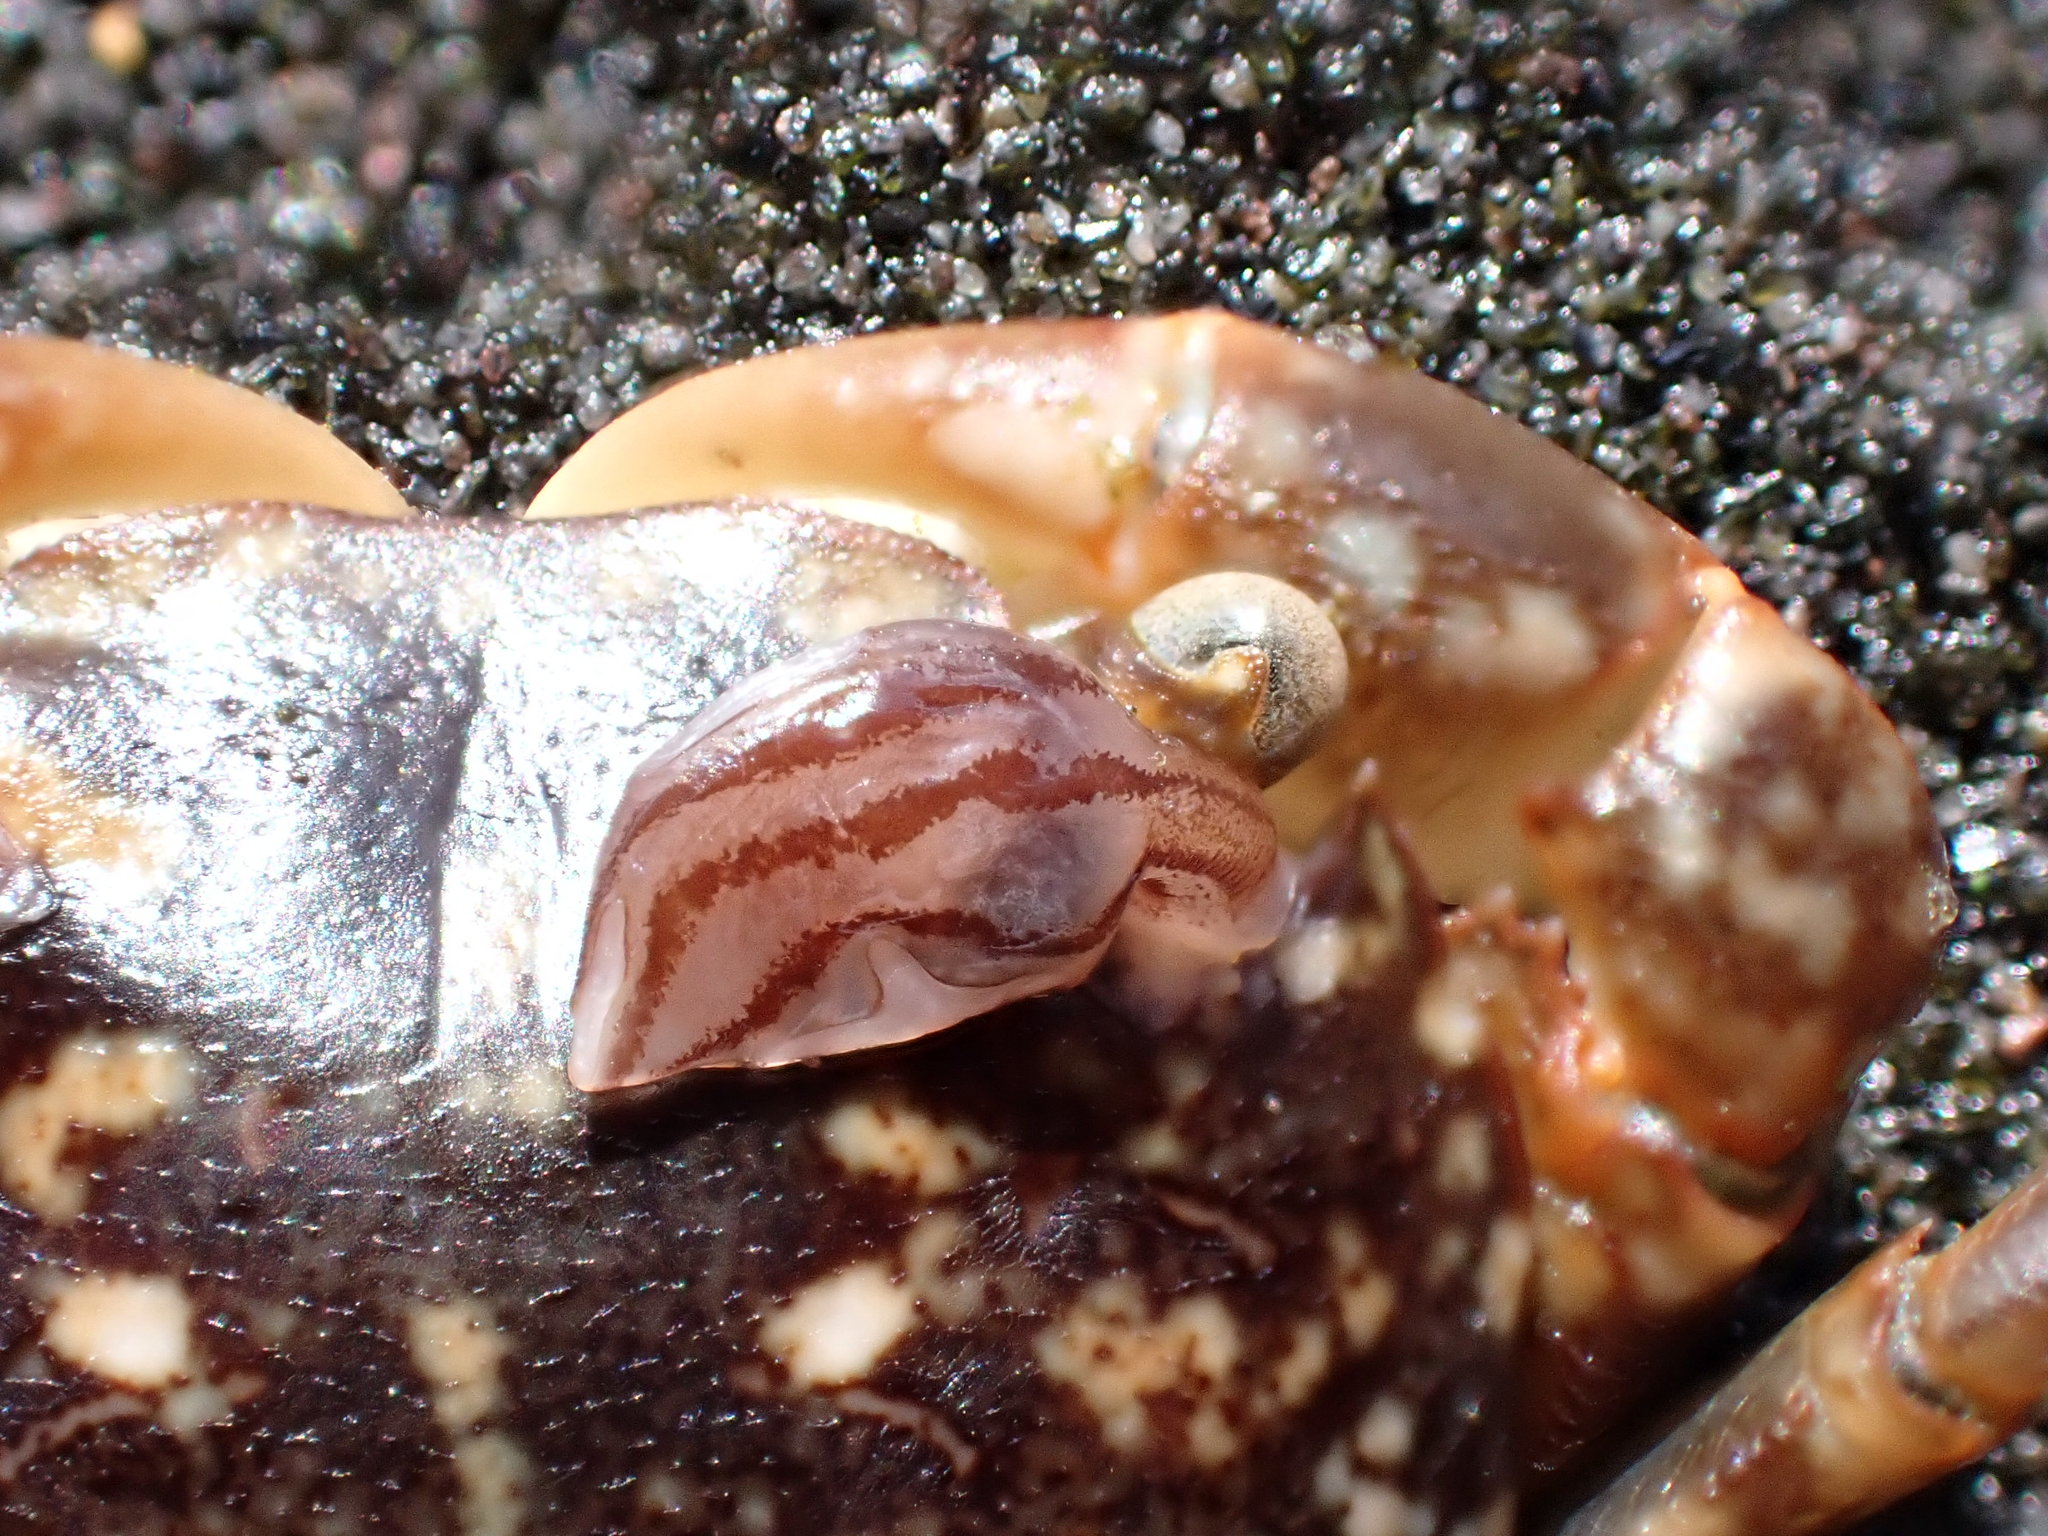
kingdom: Animalia
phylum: Arthropoda
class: Maxillopoda
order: Pedunculata
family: Lepadidae
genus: Conchoderma
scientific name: Conchoderma virgatum
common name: Striped gooseneck barnacle
